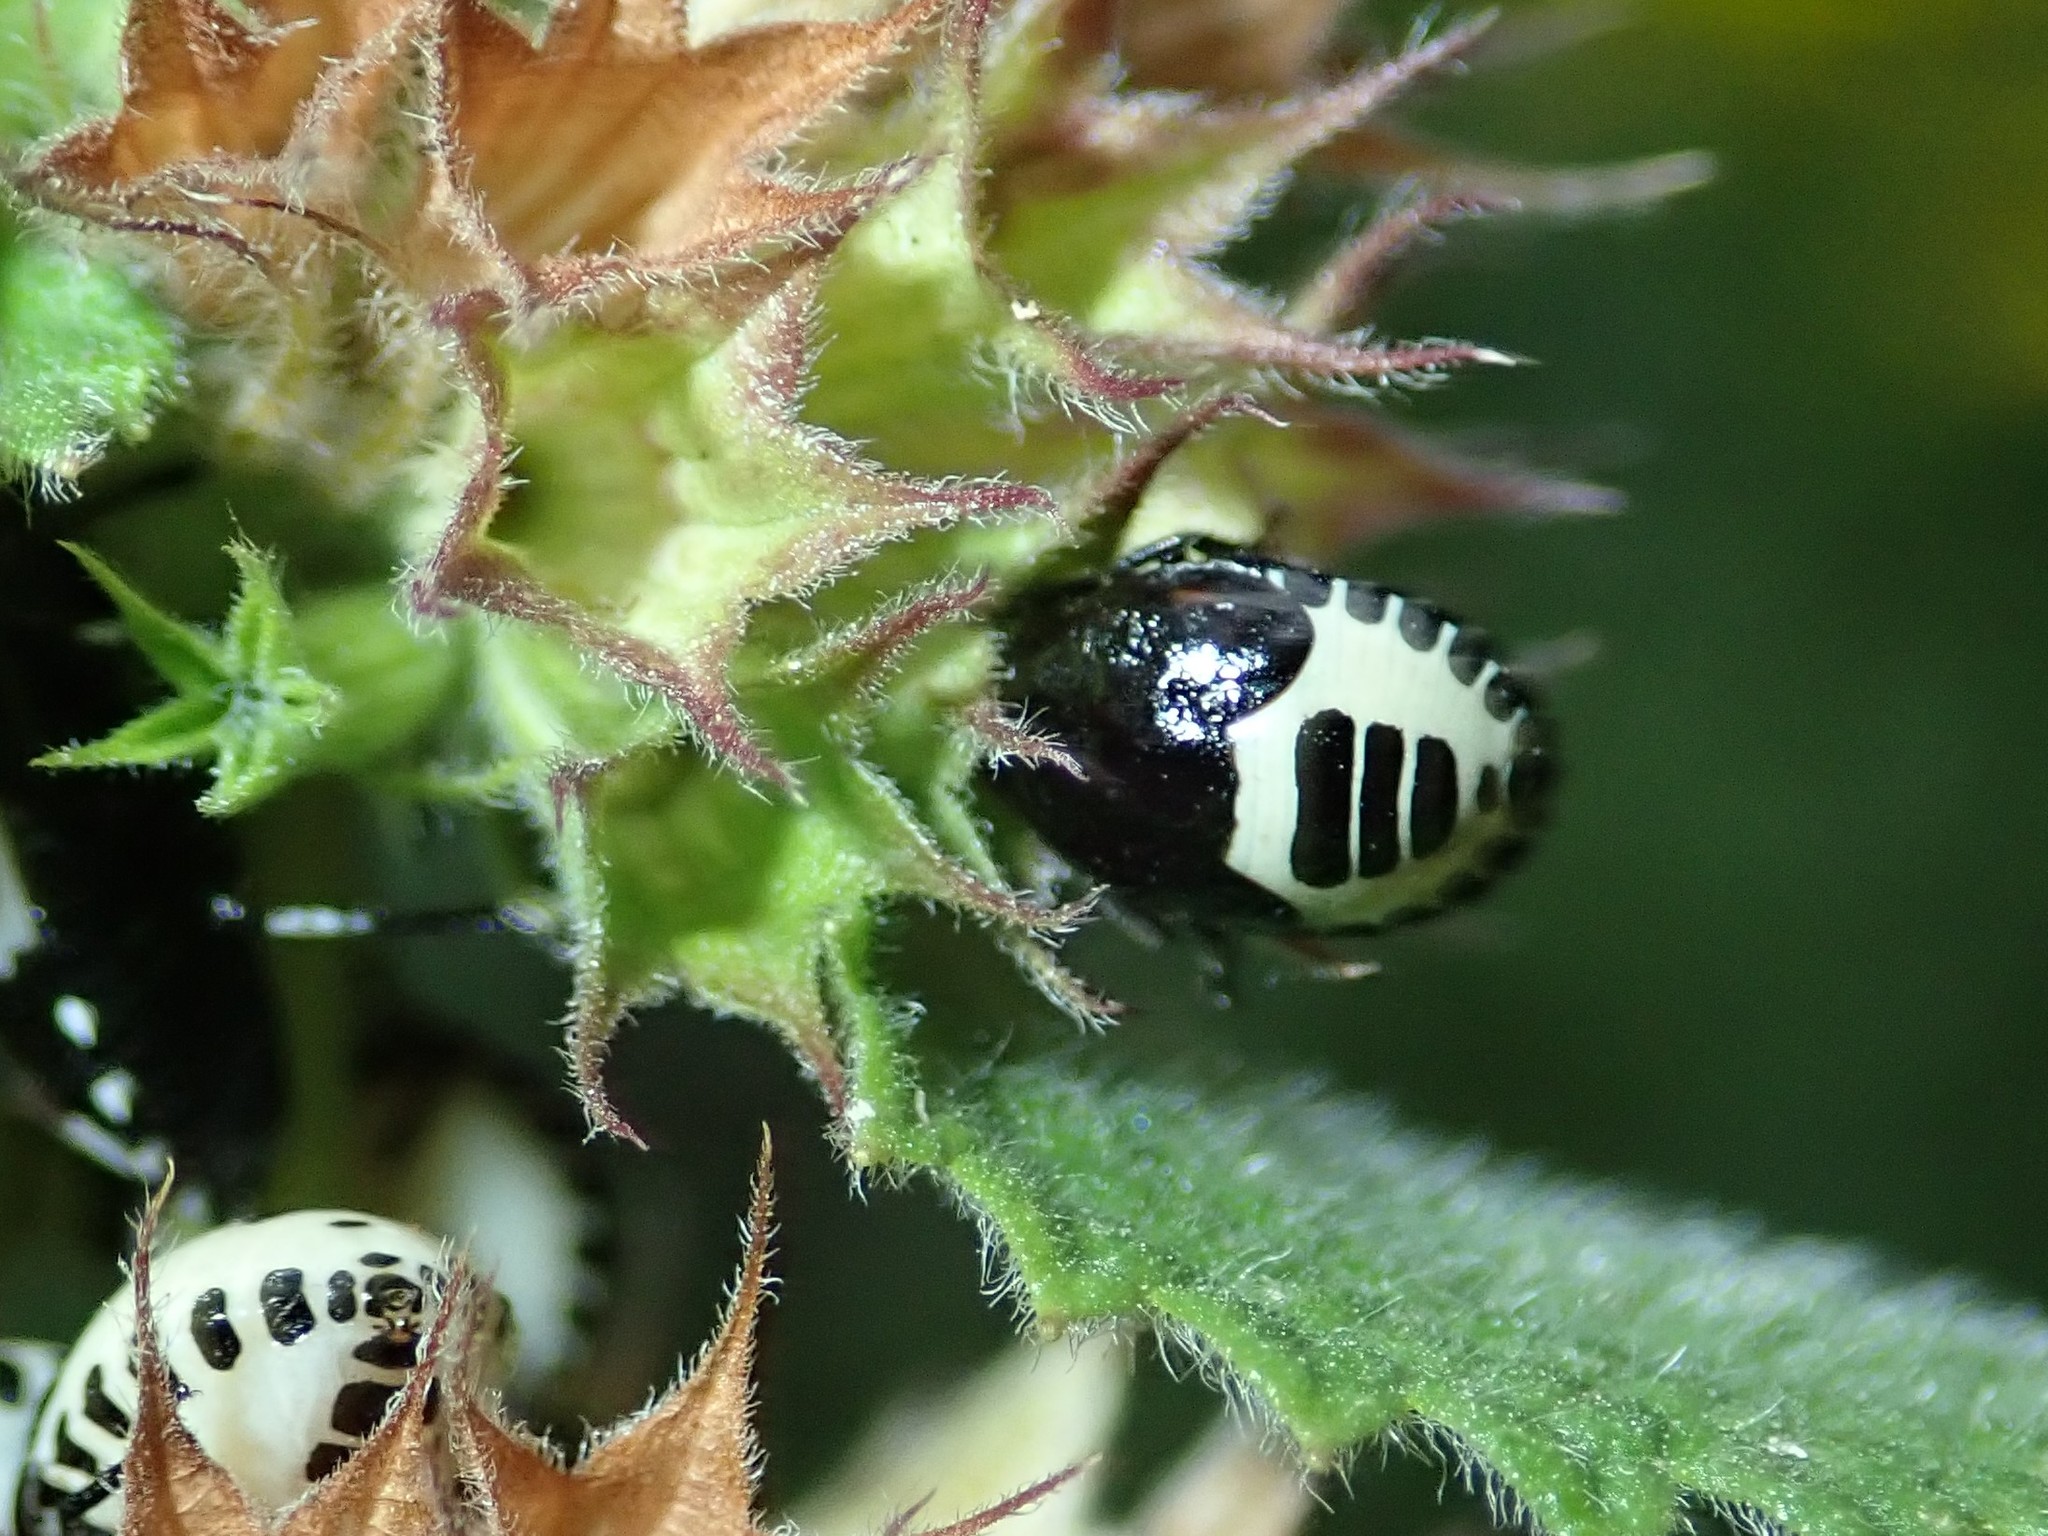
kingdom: Animalia
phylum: Arthropoda
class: Insecta
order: Hemiptera
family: Cydnidae
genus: Tritomegas
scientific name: Tritomegas sexmaculatus
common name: Rambur's pied shieldbug
